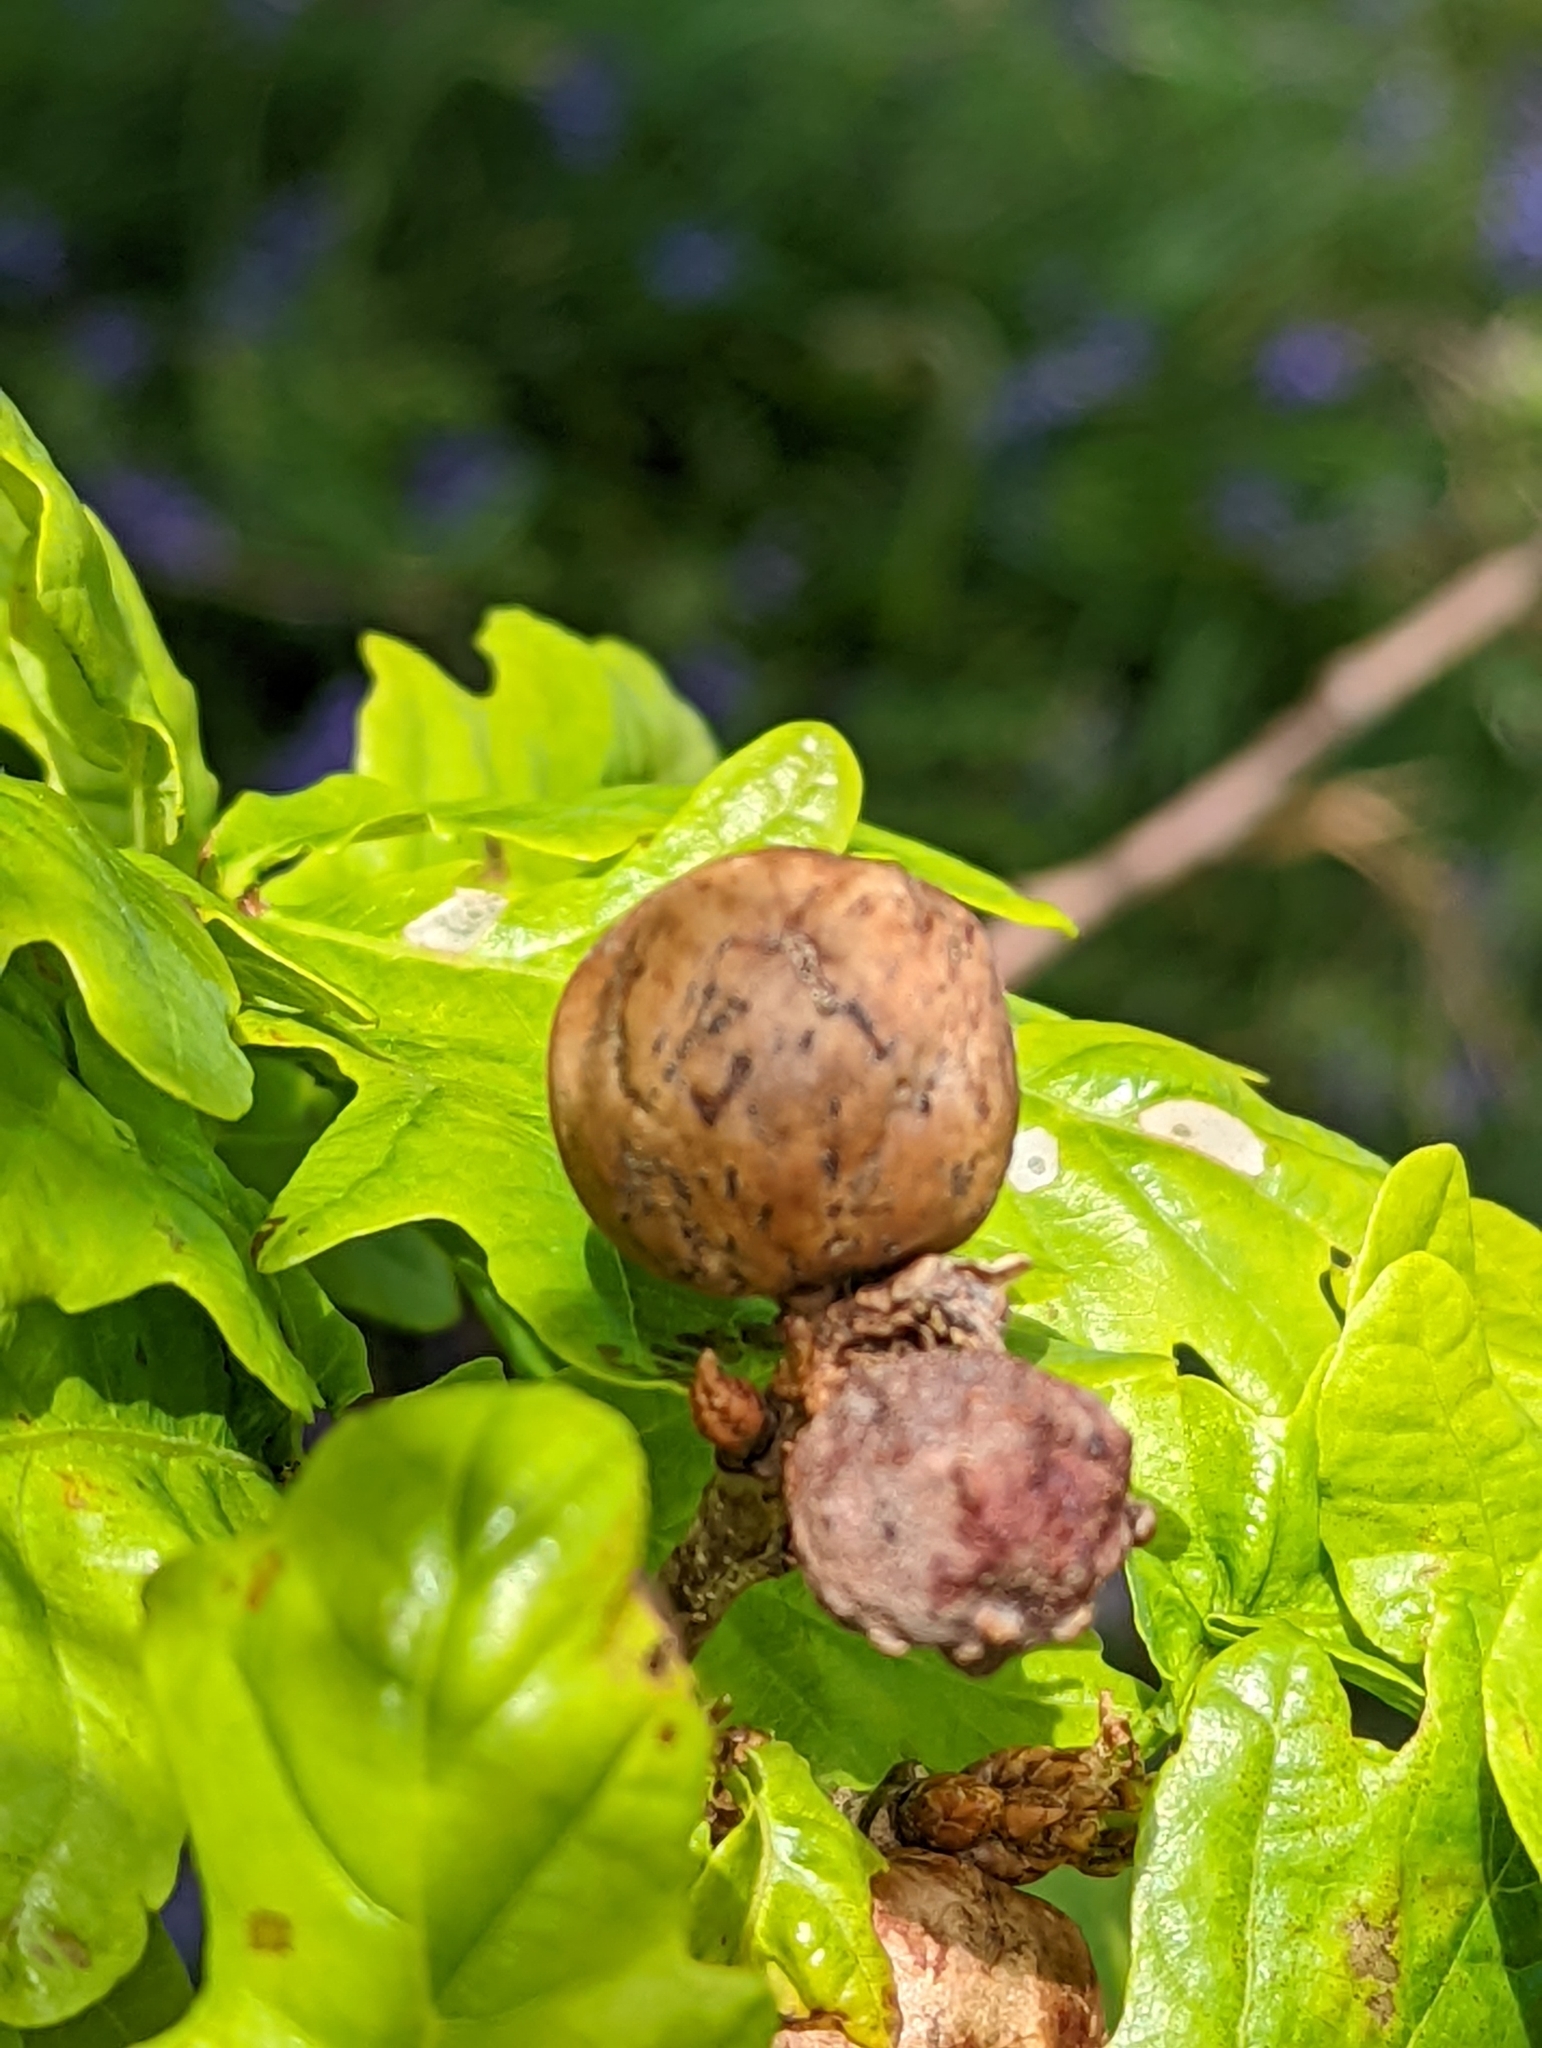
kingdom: Animalia
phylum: Arthropoda
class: Insecta
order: Hymenoptera
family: Cynipidae
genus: Biorhiza
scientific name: Biorhiza pallida
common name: Oak apple
